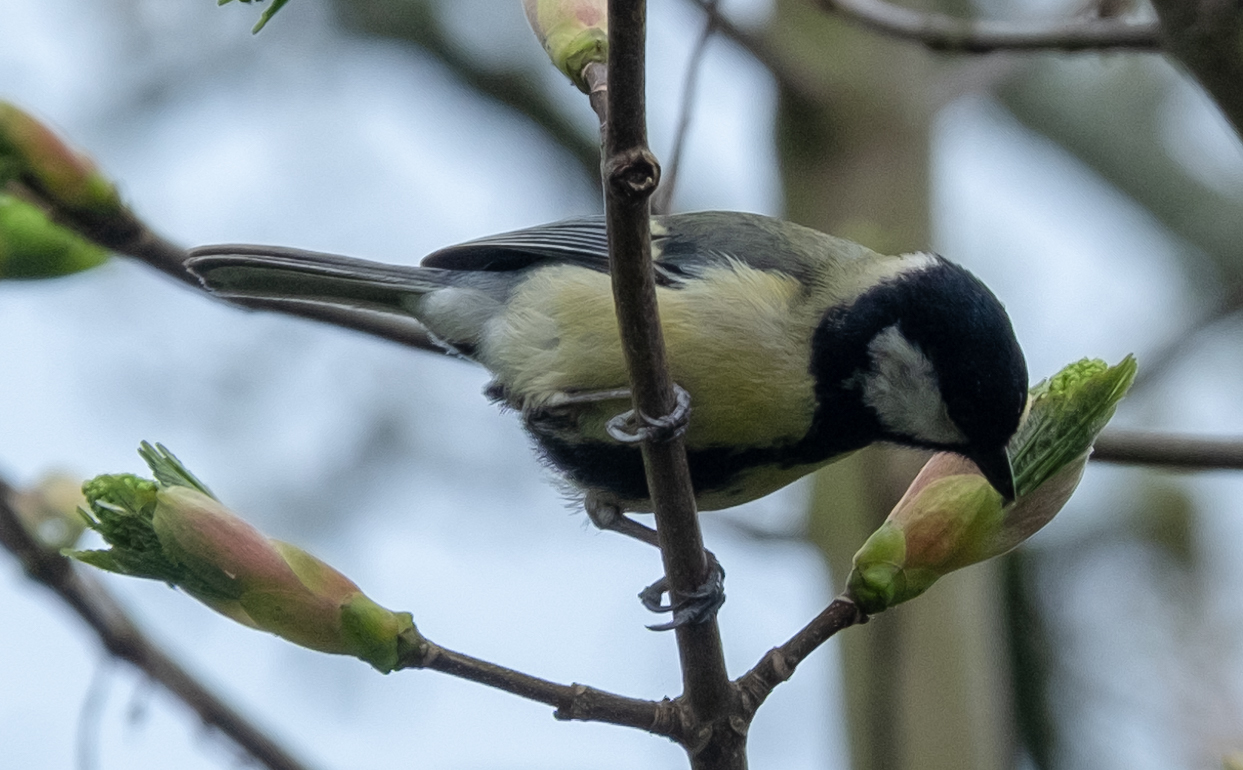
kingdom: Animalia
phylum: Chordata
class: Aves
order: Passeriformes
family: Paridae
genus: Parus
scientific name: Parus major
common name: Great tit
